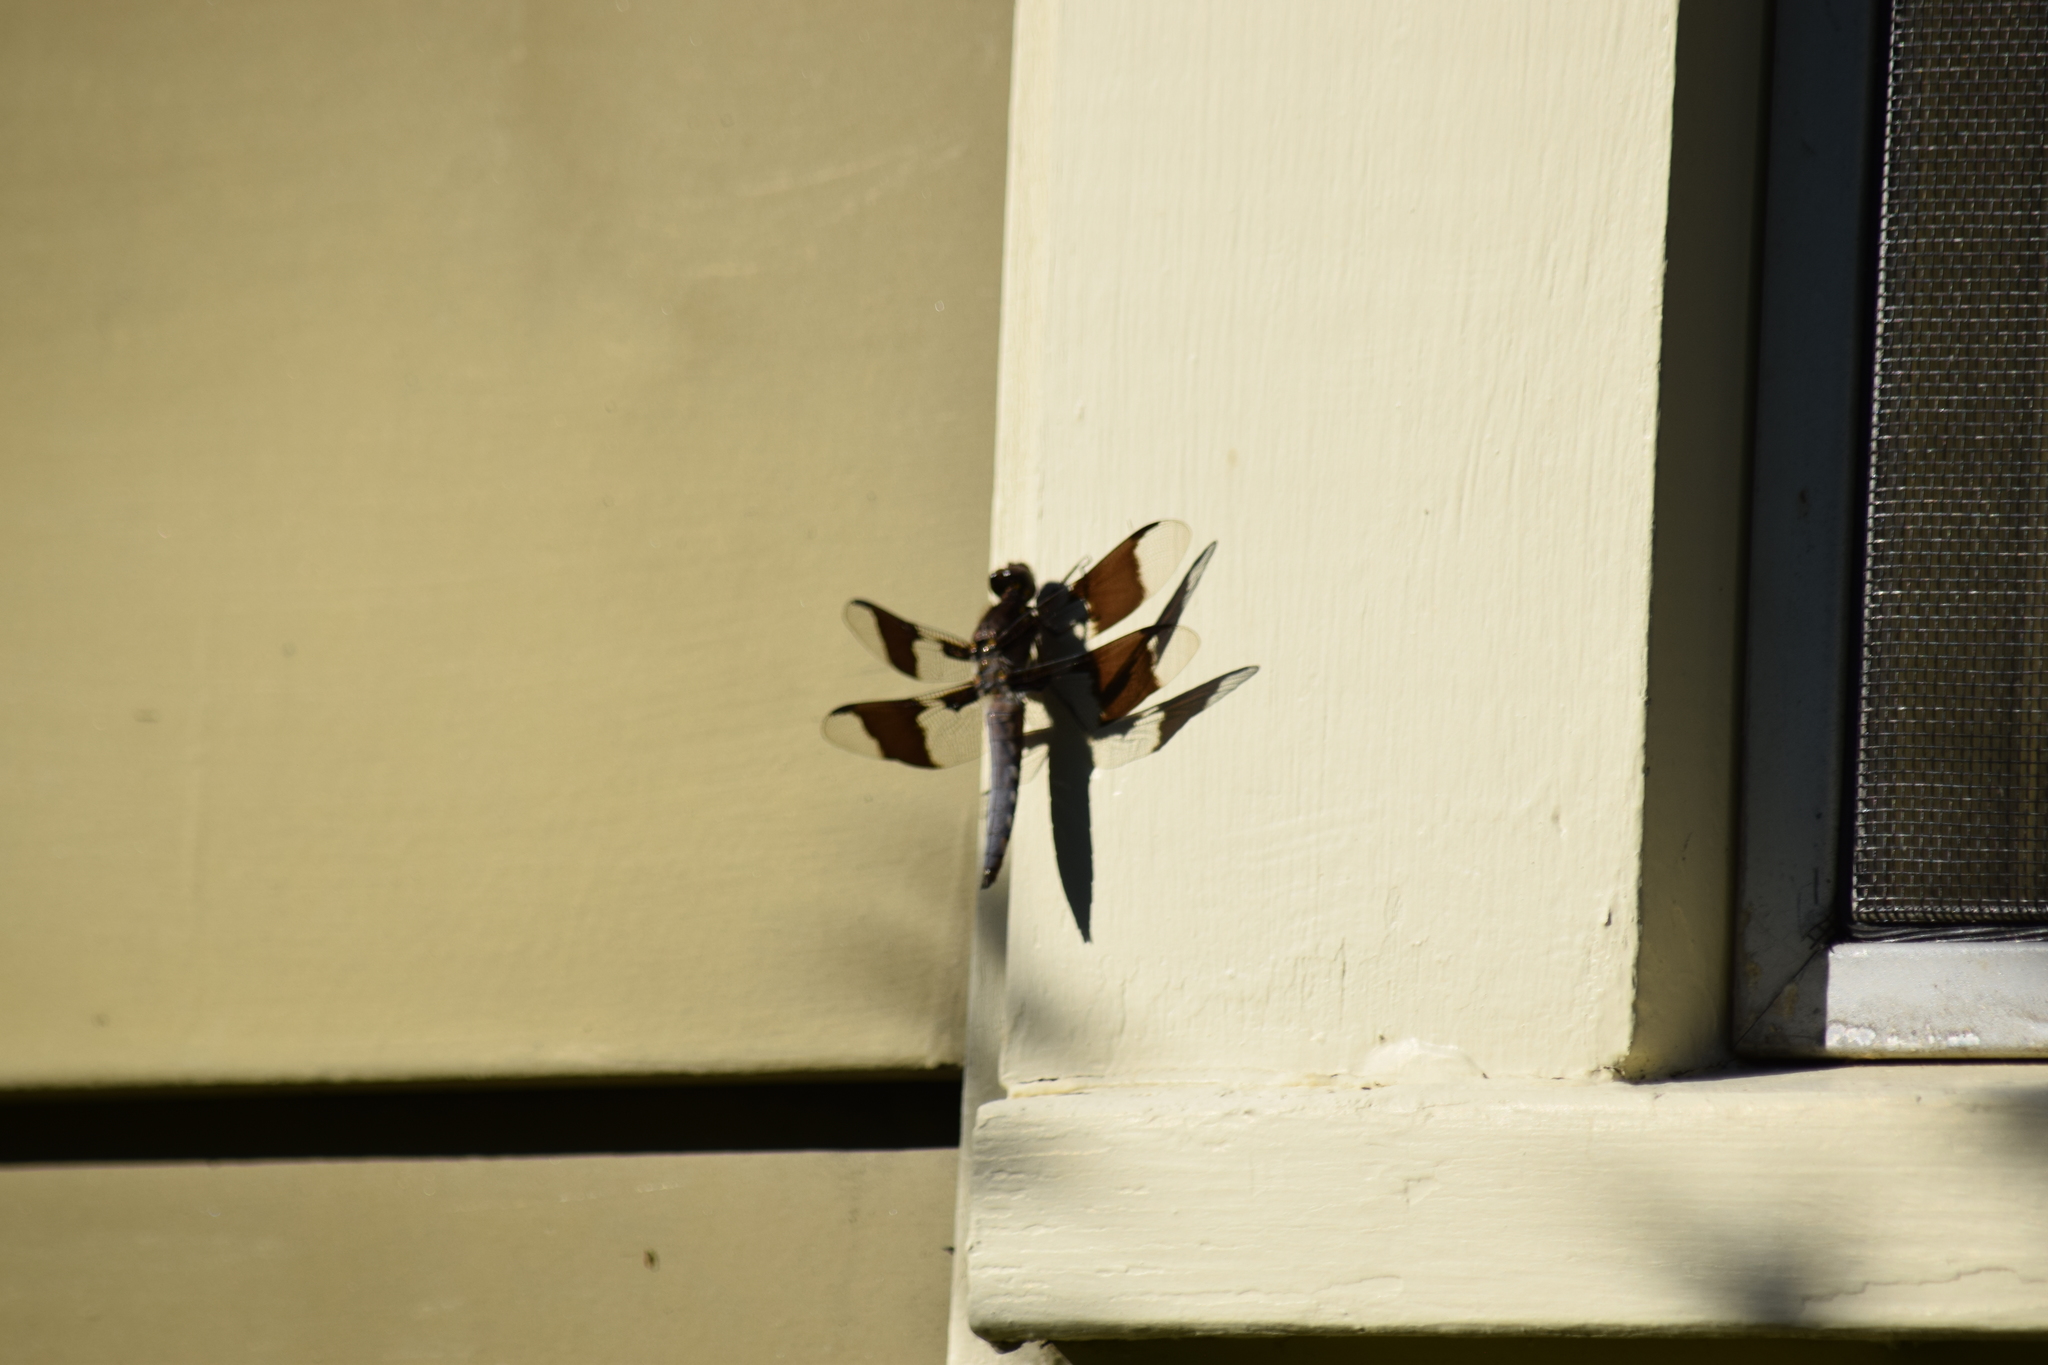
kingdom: Animalia
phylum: Arthropoda
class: Insecta
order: Odonata
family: Libellulidae
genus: Plathemis
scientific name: Plathemis lydia
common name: Common whitetail
